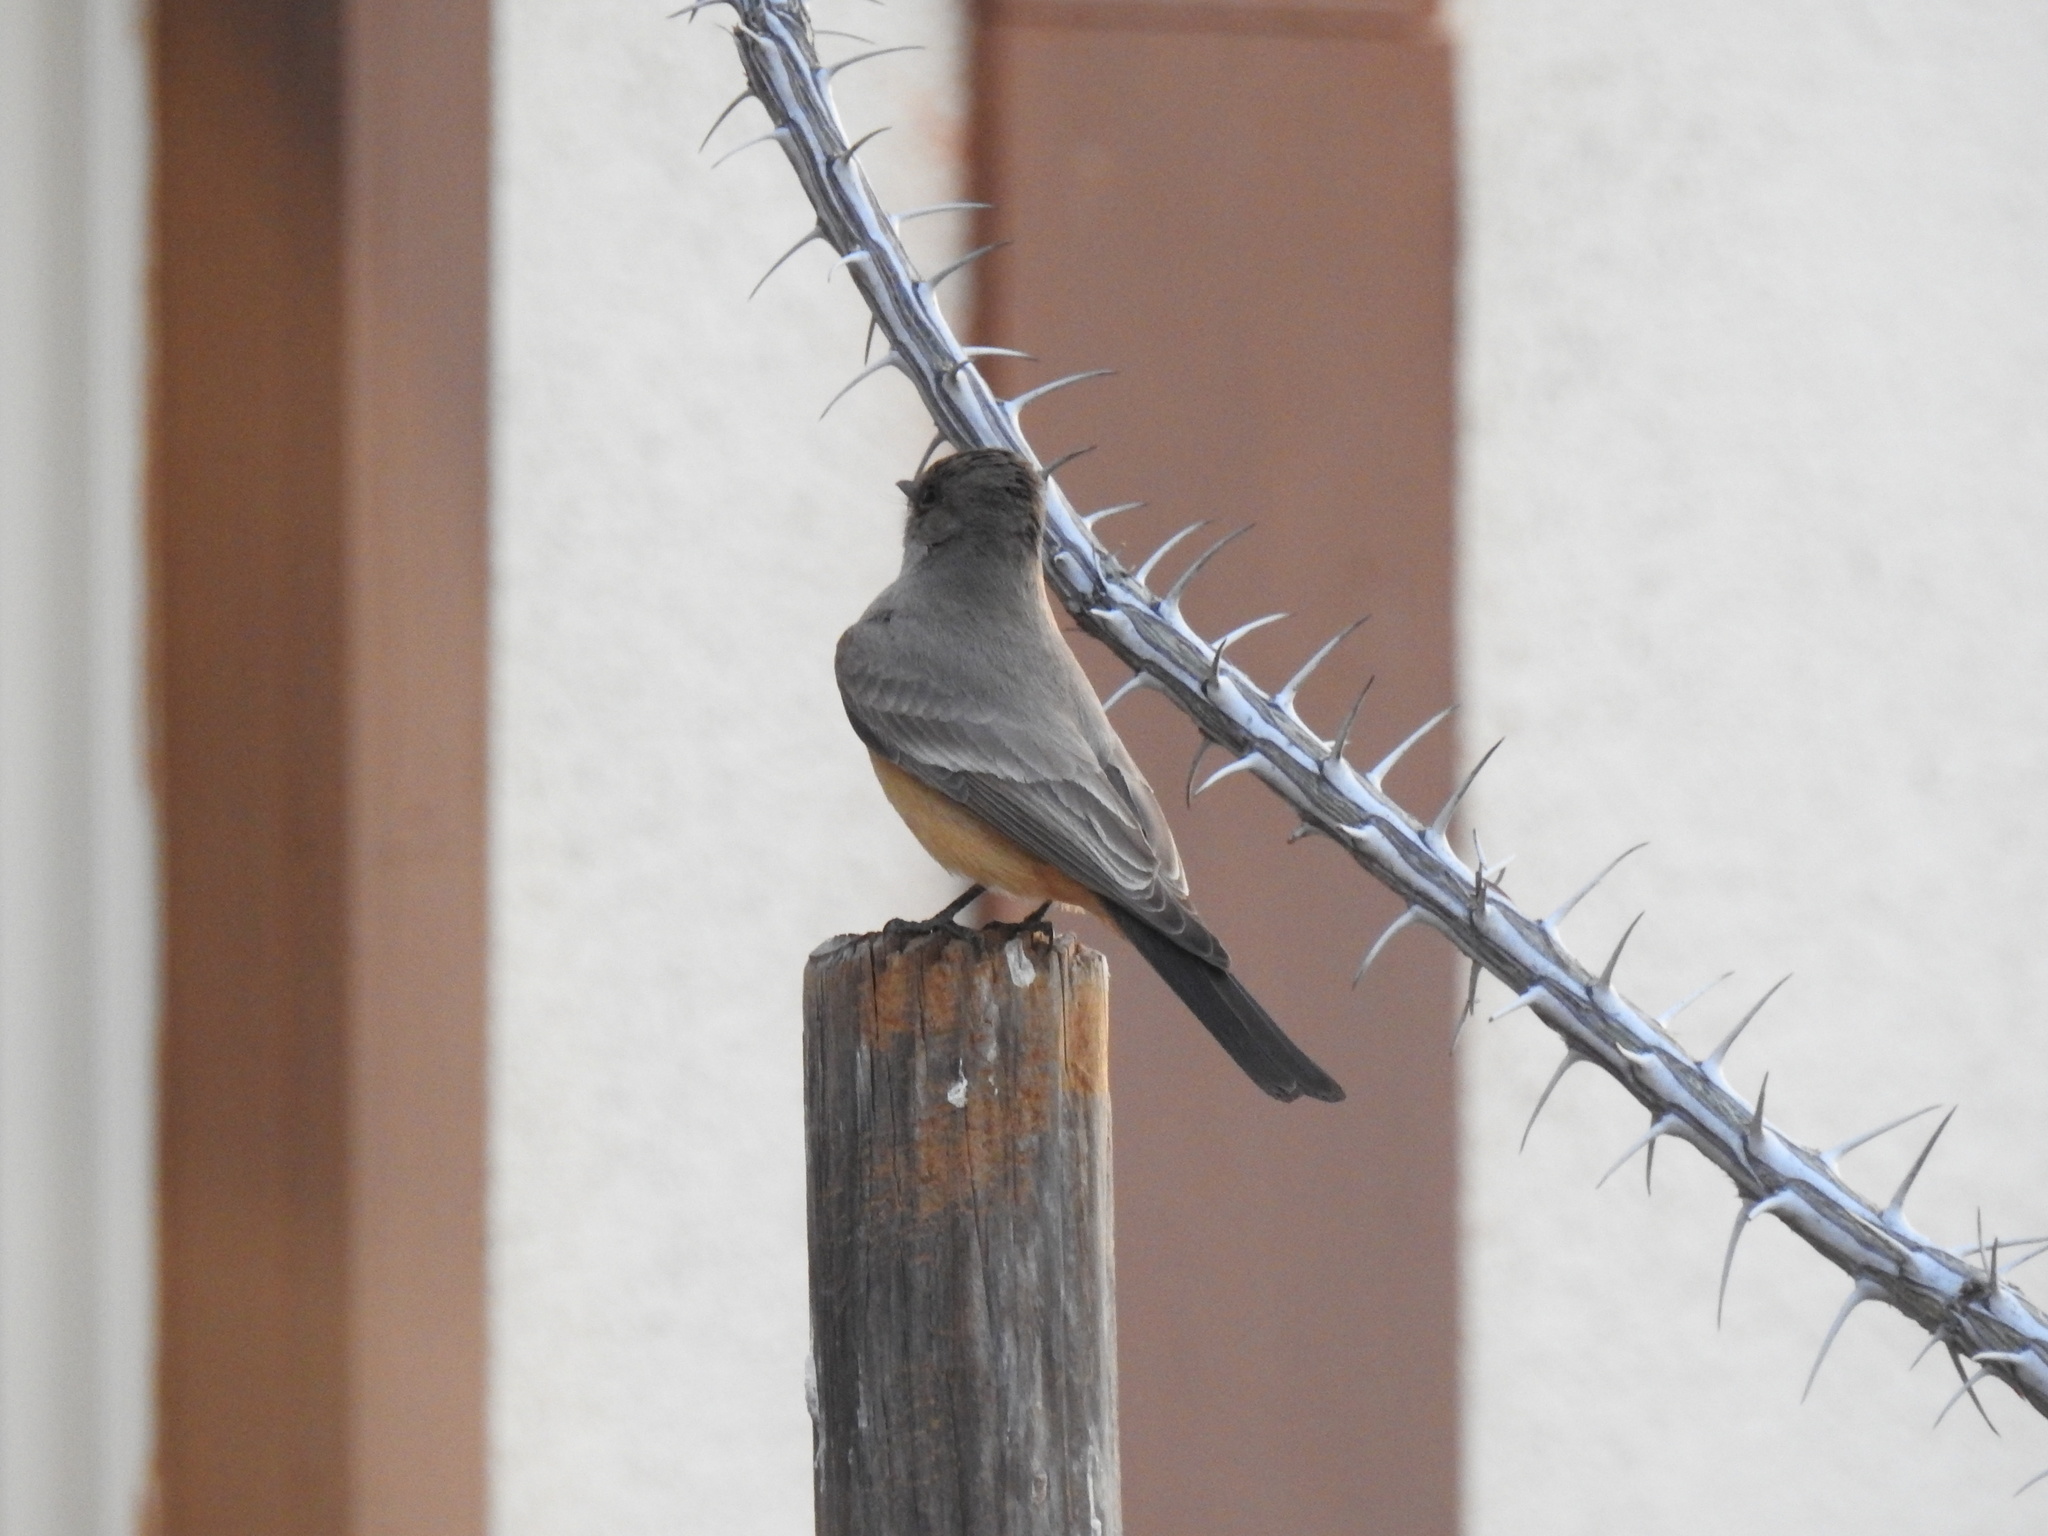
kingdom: Animalia
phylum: Chordata
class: Aves
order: Passeriformes
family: Tyrannidae
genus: Sayornis
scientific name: Sayornis saya
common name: Say's phoebe
